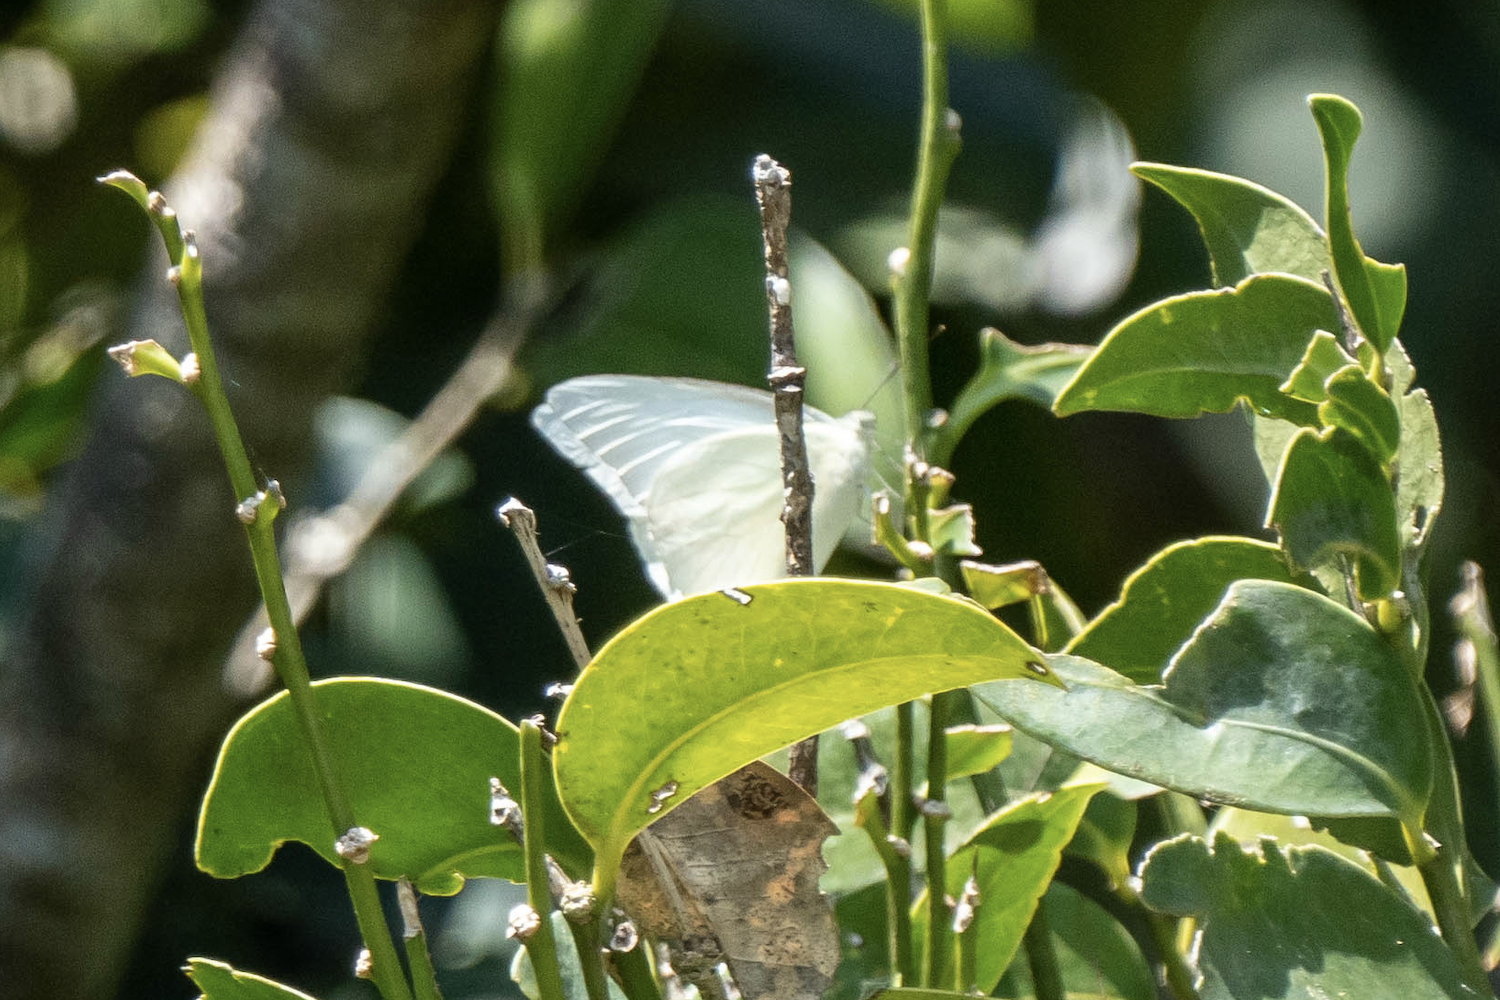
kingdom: Animalia
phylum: Arthropoda
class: Insecta
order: Lepidoptera
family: Pieridae
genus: Appias
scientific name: Appias albina
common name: Common albatross
